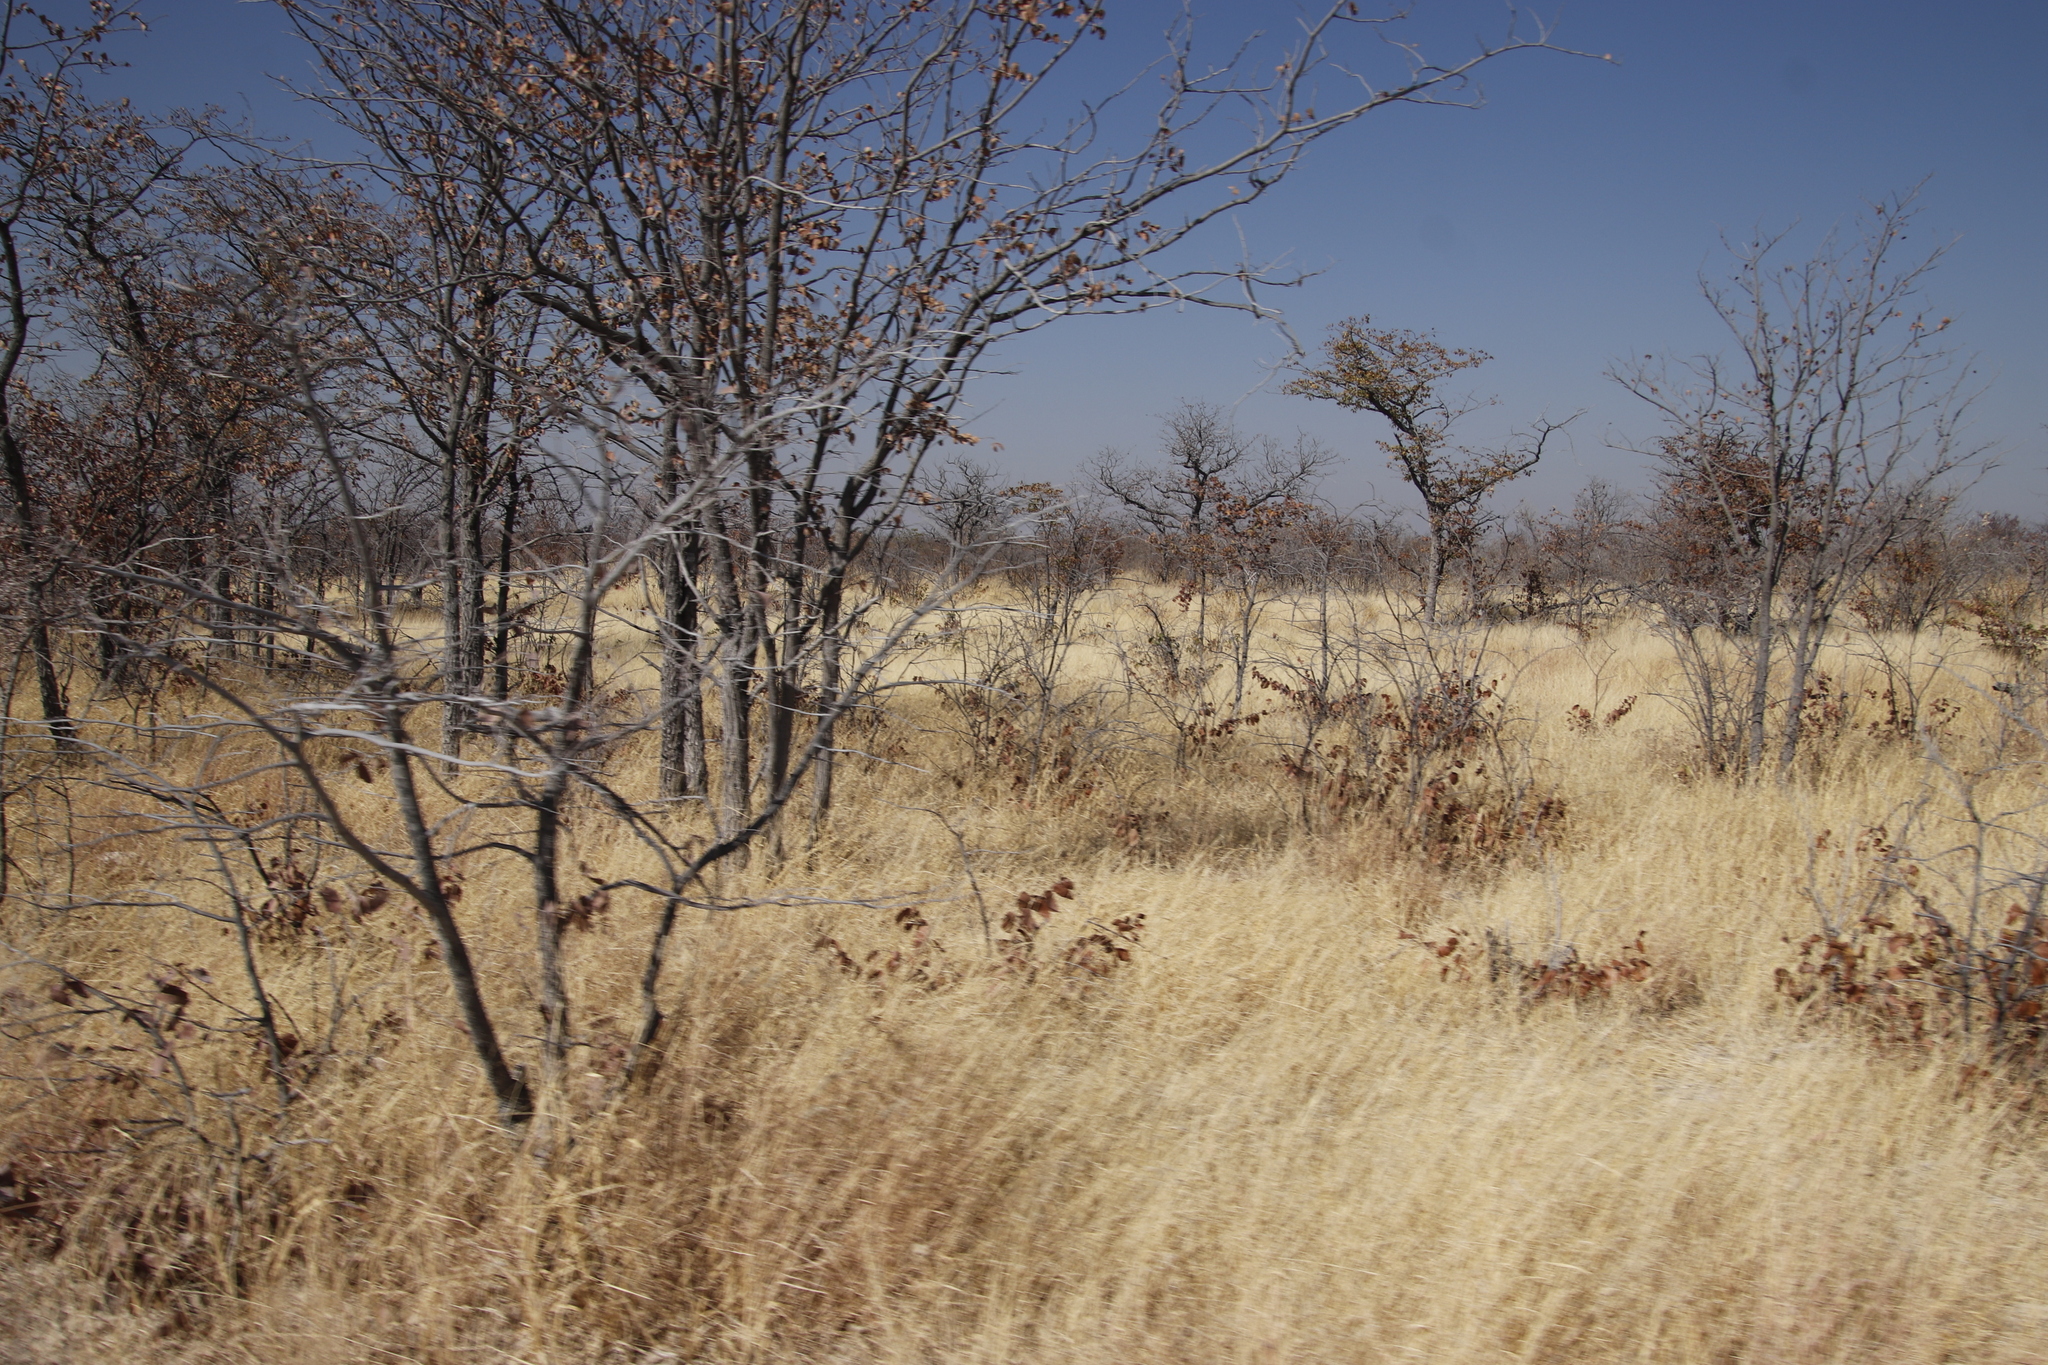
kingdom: Plantae
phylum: Tracheophyta
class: Magnoliopsida
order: Fabales
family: Fabaceae
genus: Colophospermum
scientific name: Colophospermum mopane
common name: Mopane
